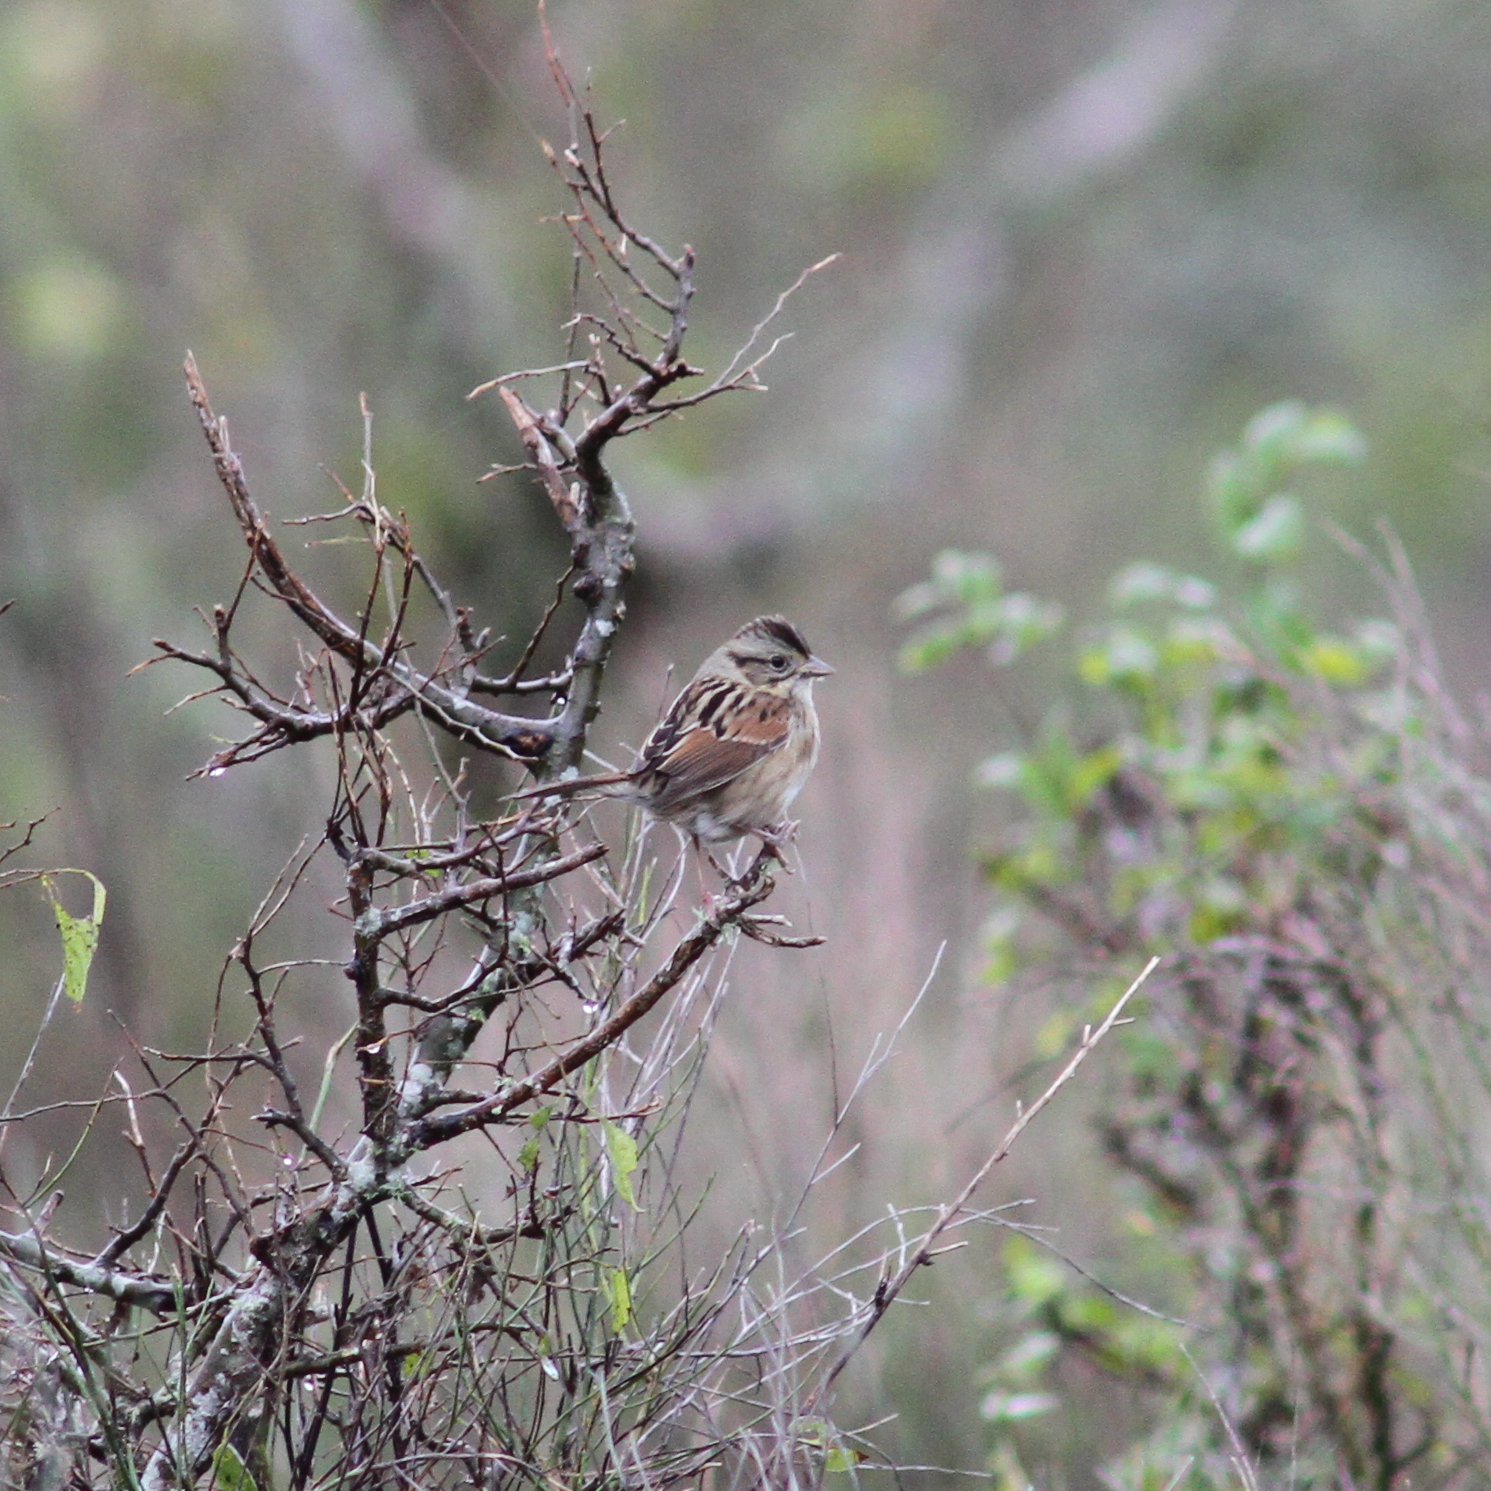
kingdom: Animalia
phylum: Chordata
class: Aves
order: Passeriformes
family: Passerellidae
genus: Melospiza
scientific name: Melospiza georgiana
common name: Swamp sparrow
